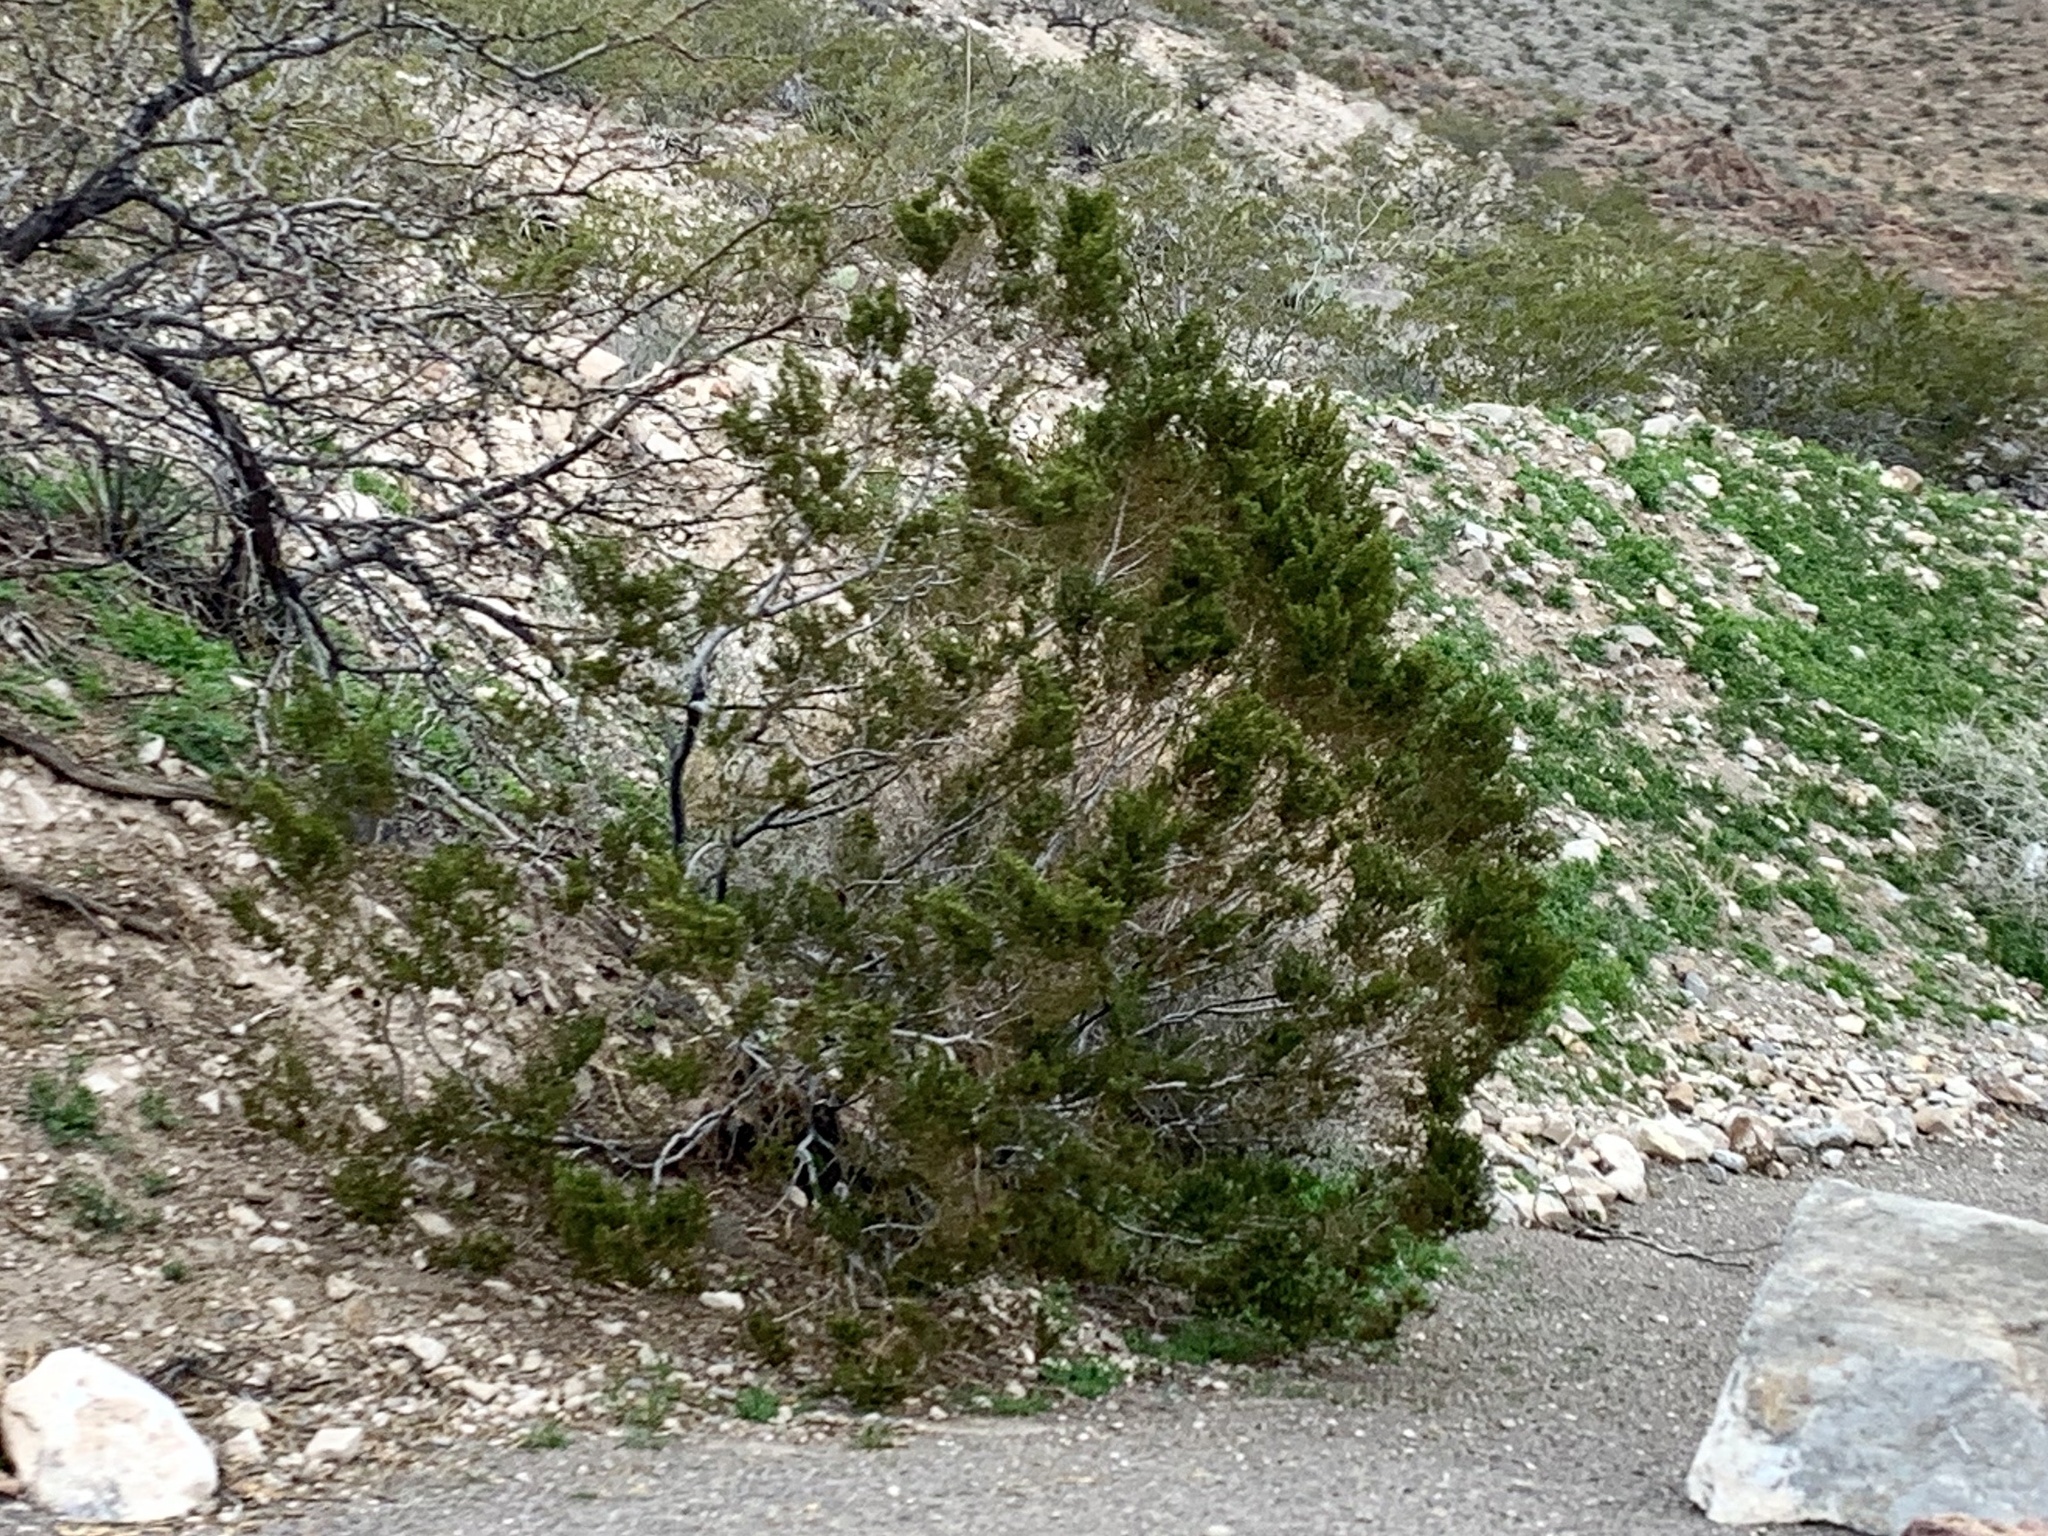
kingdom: Plantae
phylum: Tracheophyta
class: Magnoliopsida
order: Zygophyllales
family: Zygophyllaceae
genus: Larrea
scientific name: Larrea tridentata
